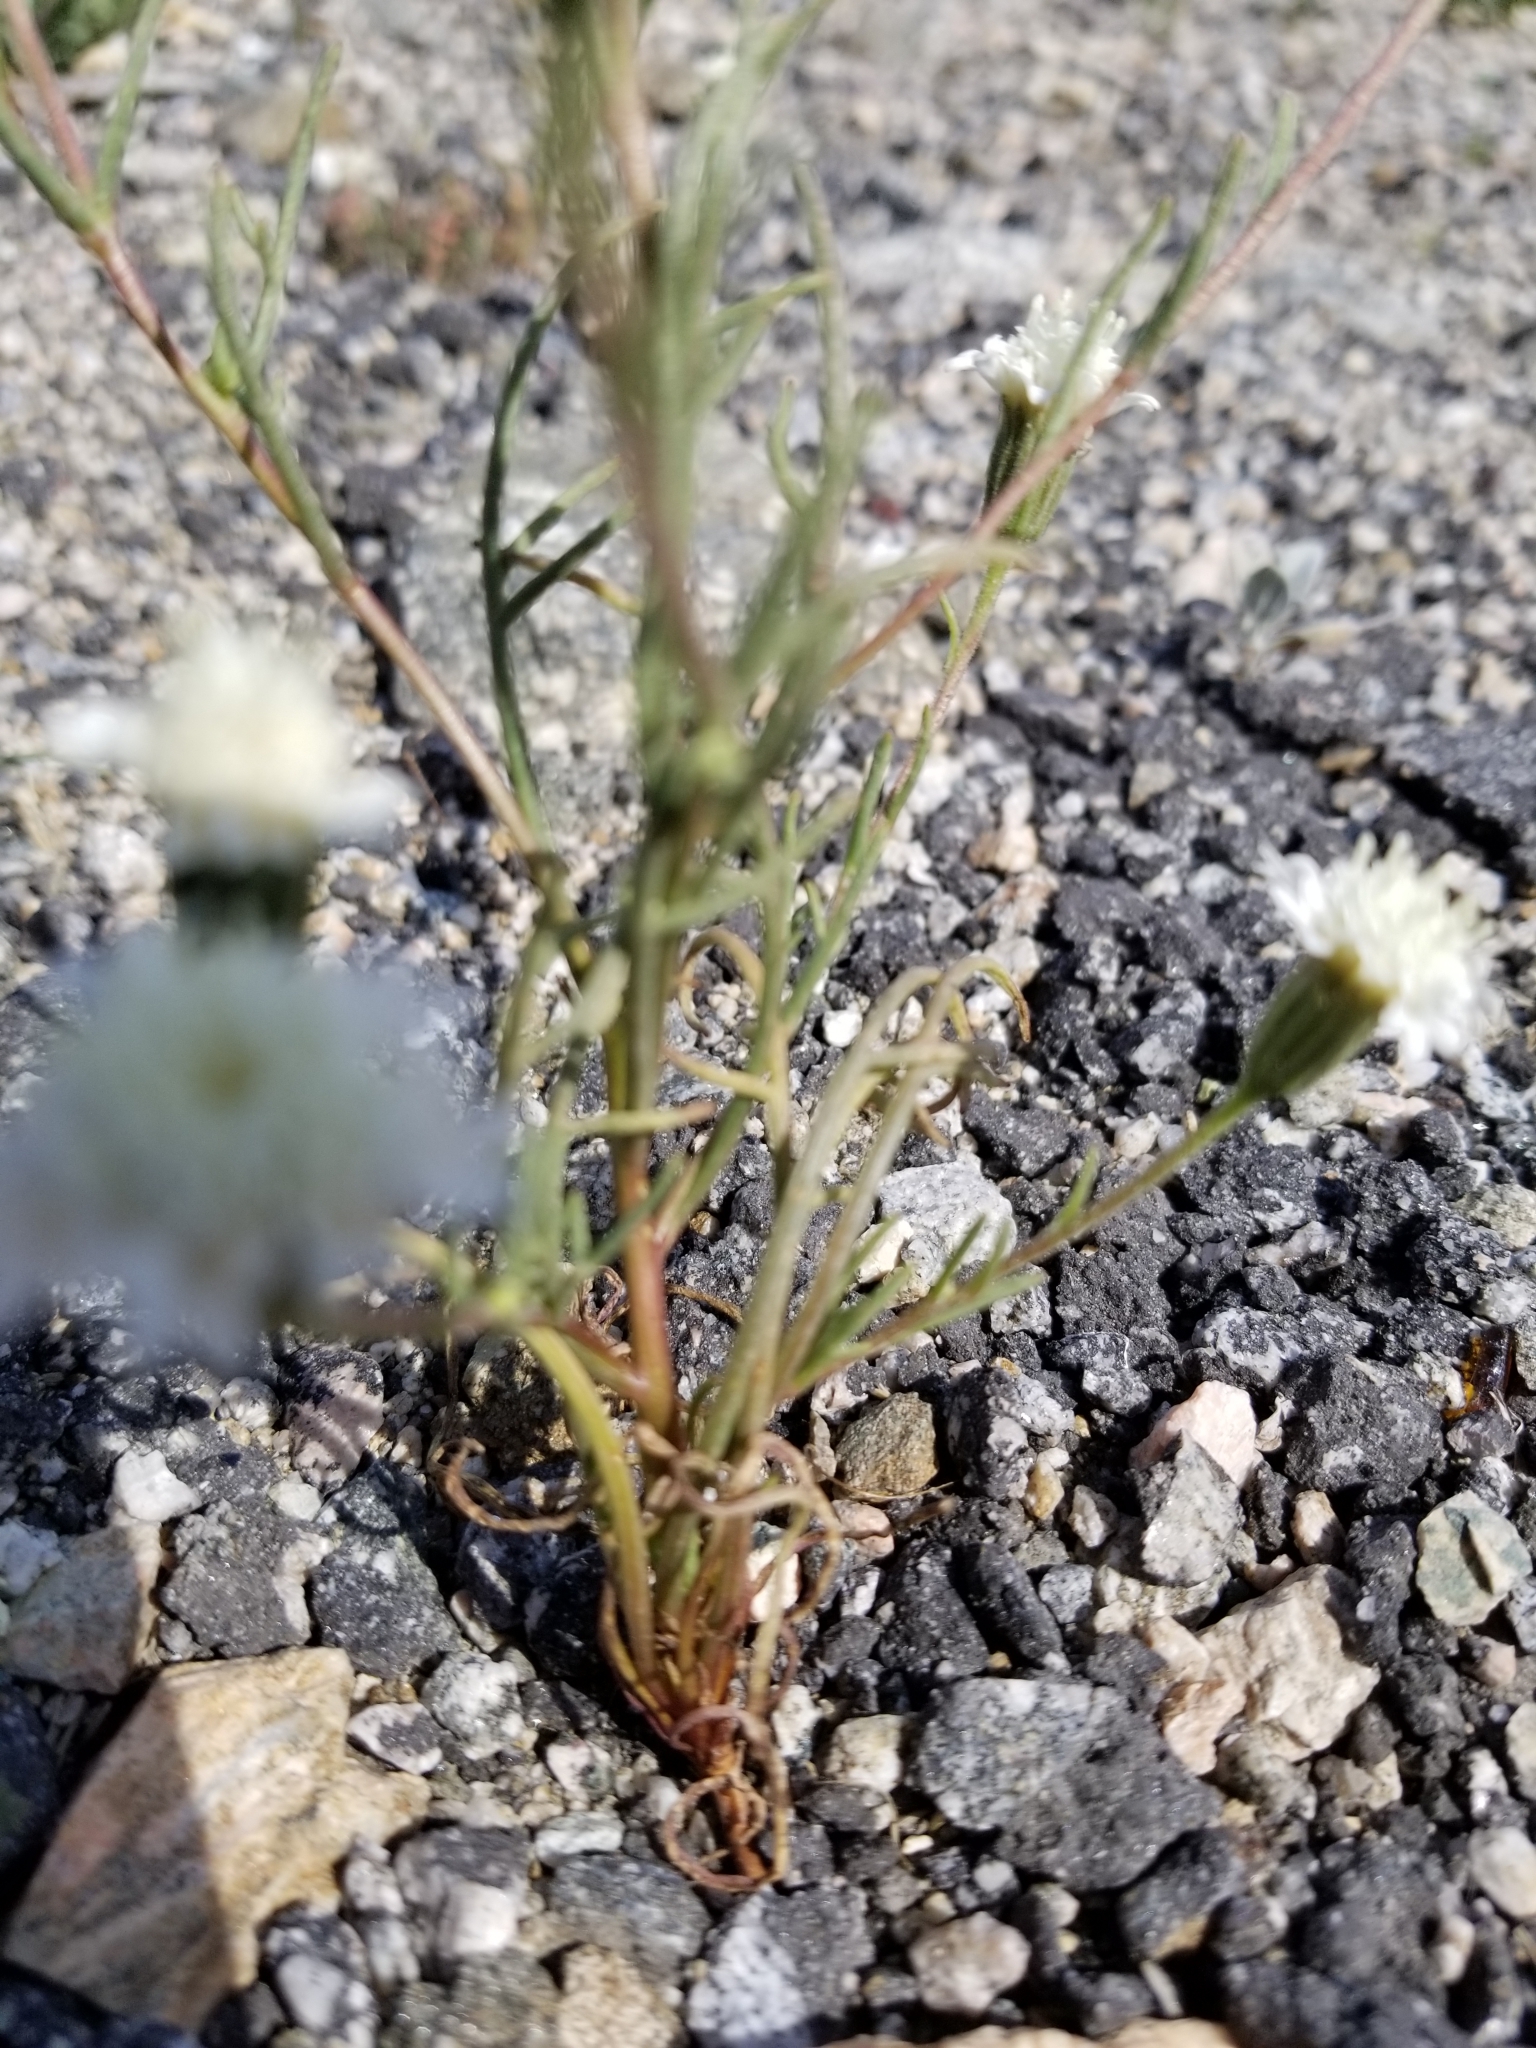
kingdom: Plantae
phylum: Tracheophyta
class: Magnoliopsida
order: Asterales
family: Asteraceae
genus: Chaenactis
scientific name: Chaenactis fremontii
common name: Fremont pincushion
